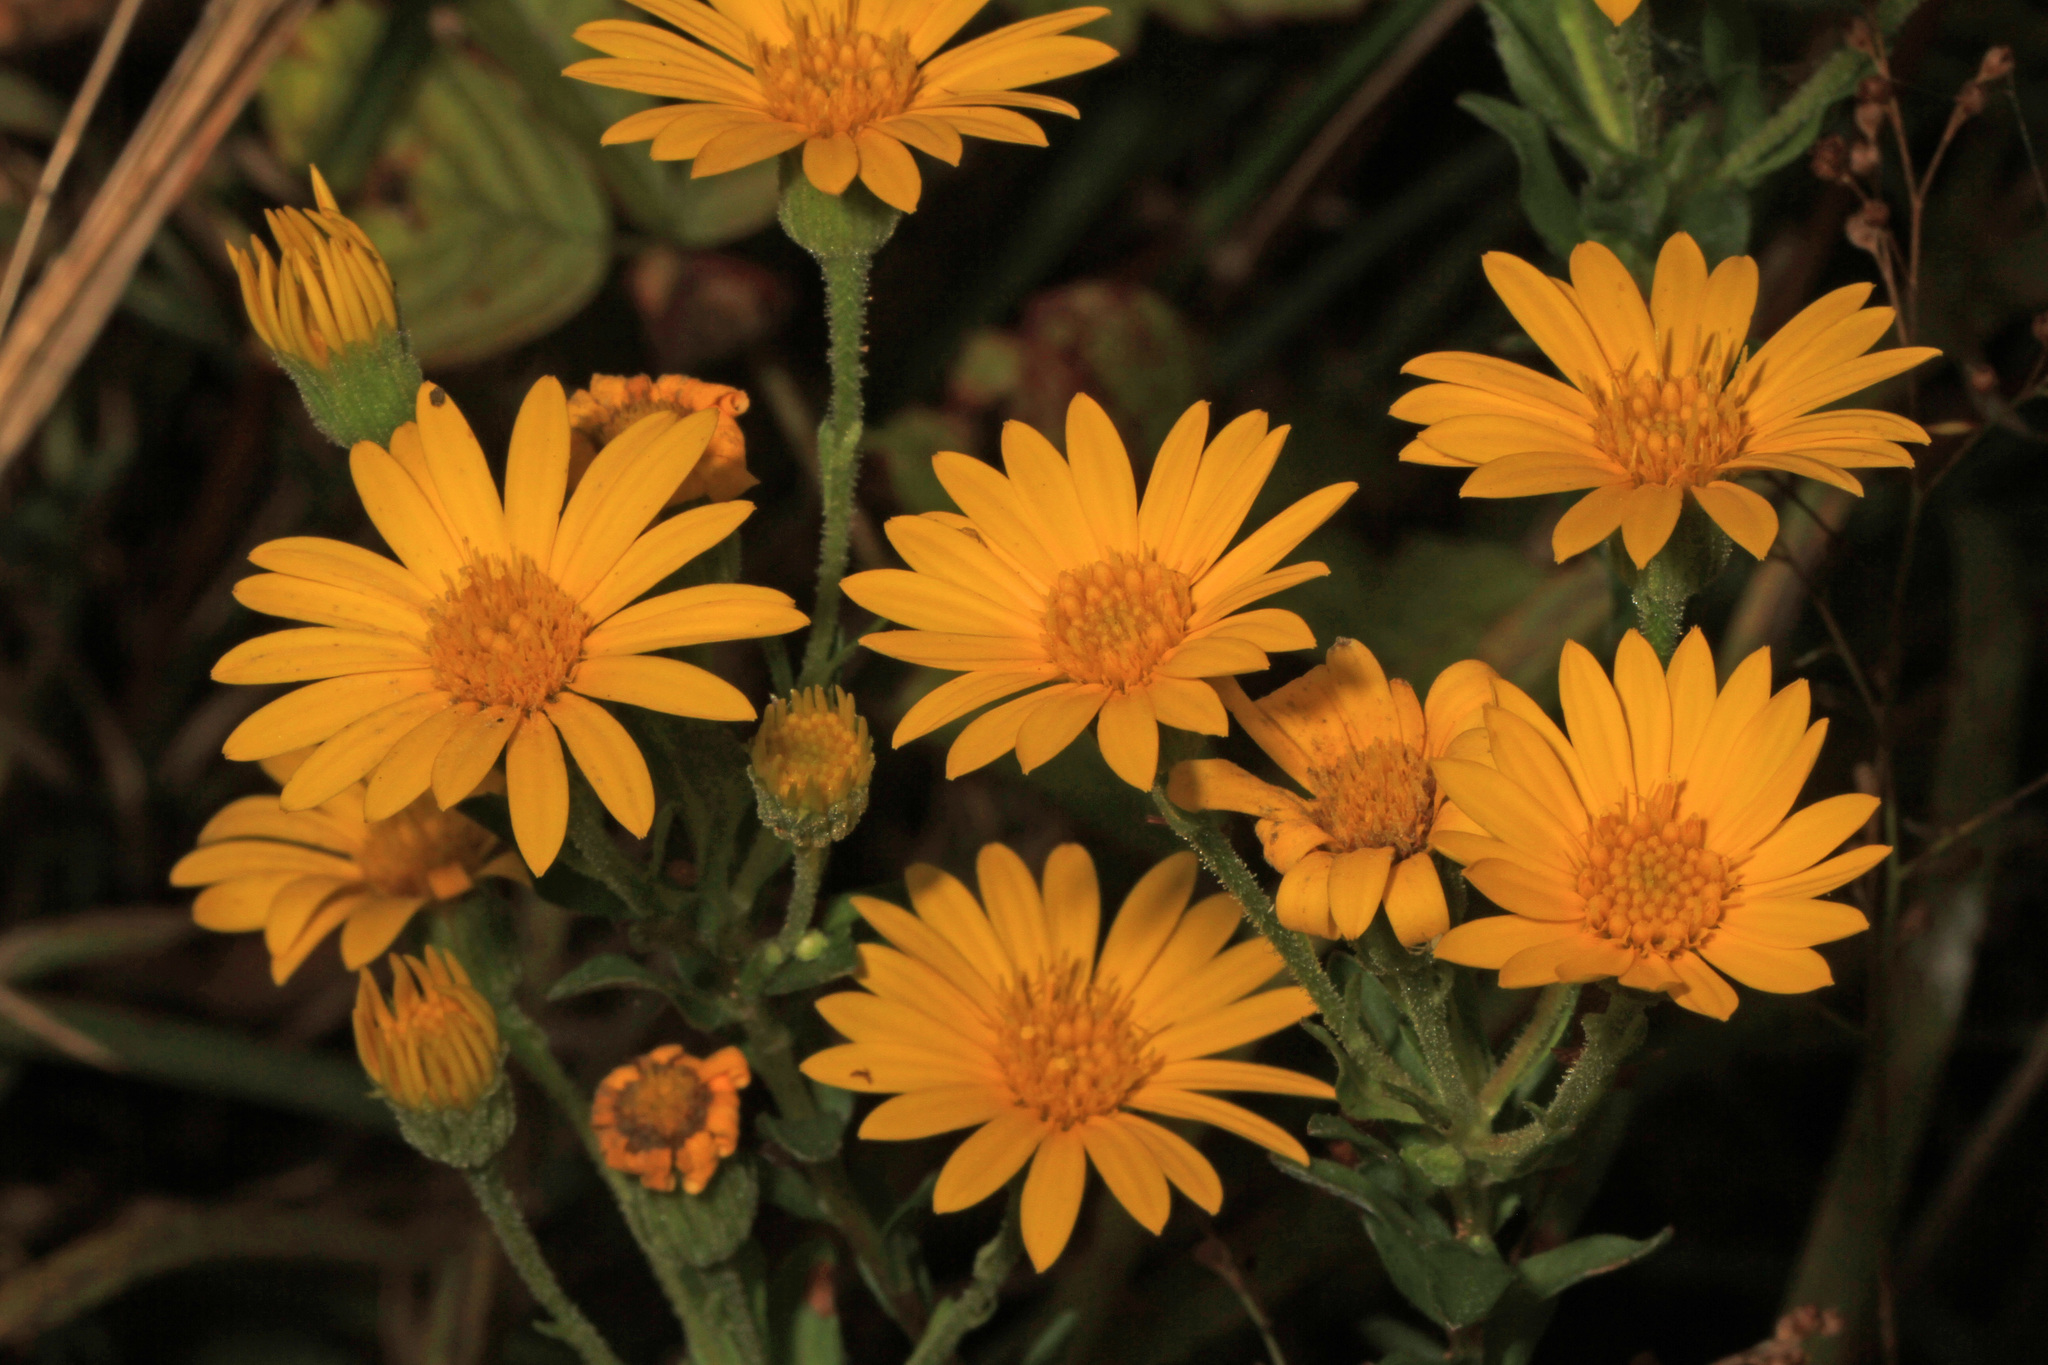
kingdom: Plantae
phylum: Tracheophyta
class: Magnoliopsida
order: Asterales
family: Asteraceae
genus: Chrysopsis
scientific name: Chrysopsis mariana
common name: Maryland golden-aster
